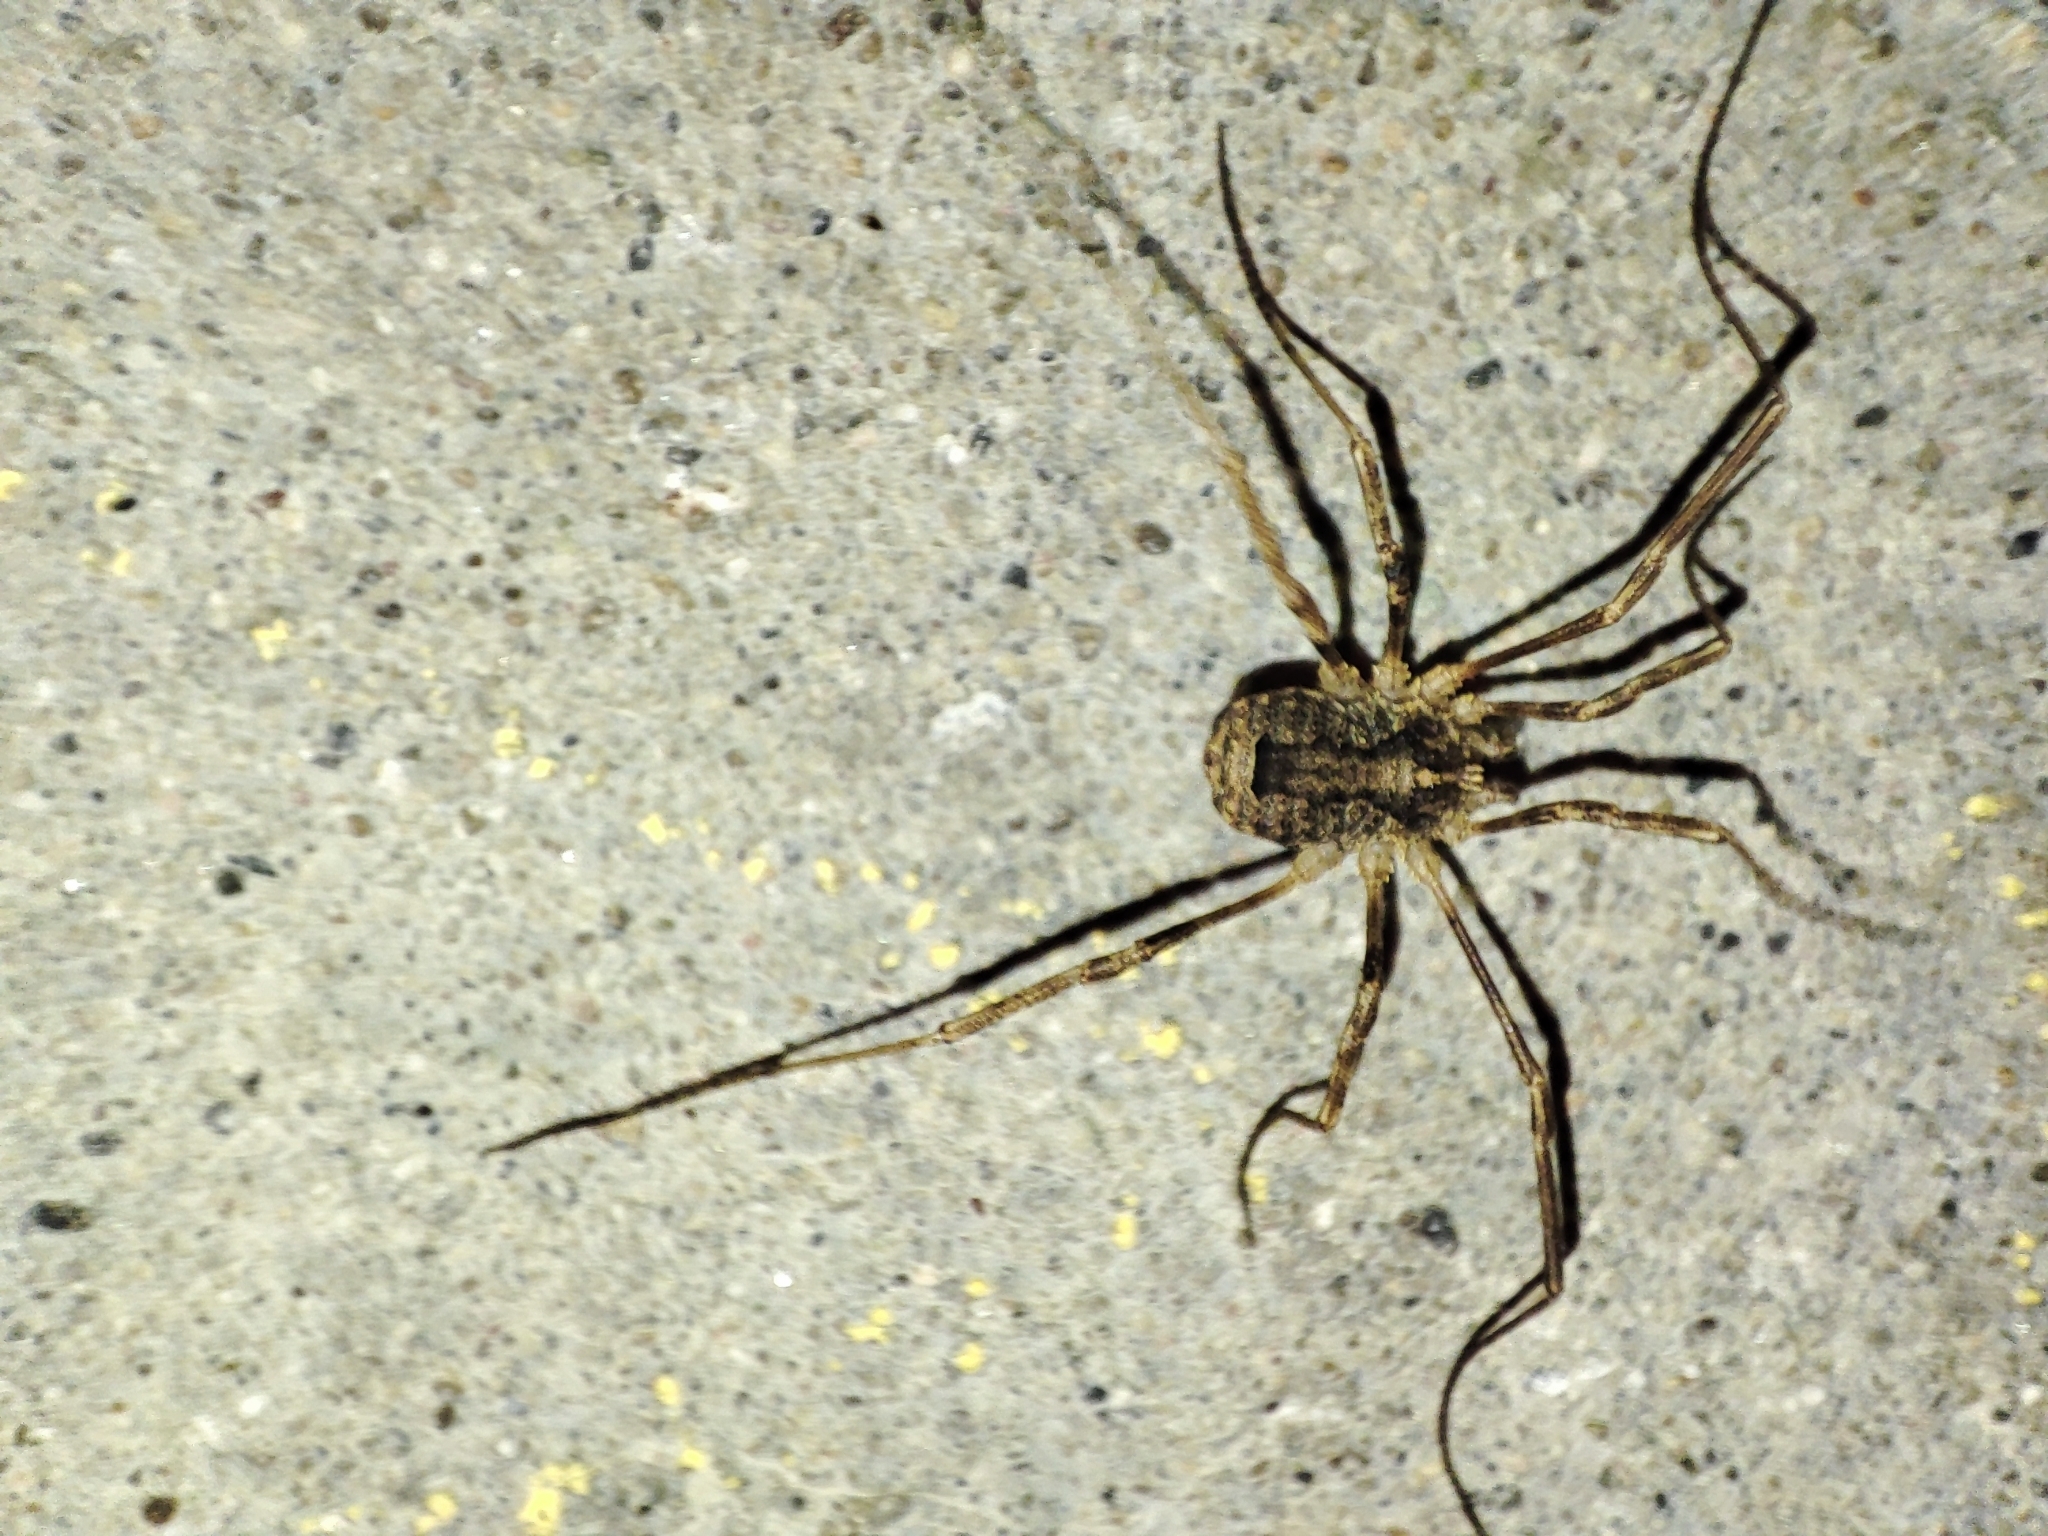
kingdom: Animalia
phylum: Arthropoda
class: Arachnida
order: Opiliones
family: Phalangiidae
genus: Odiellus
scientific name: Odiellus spinosus
